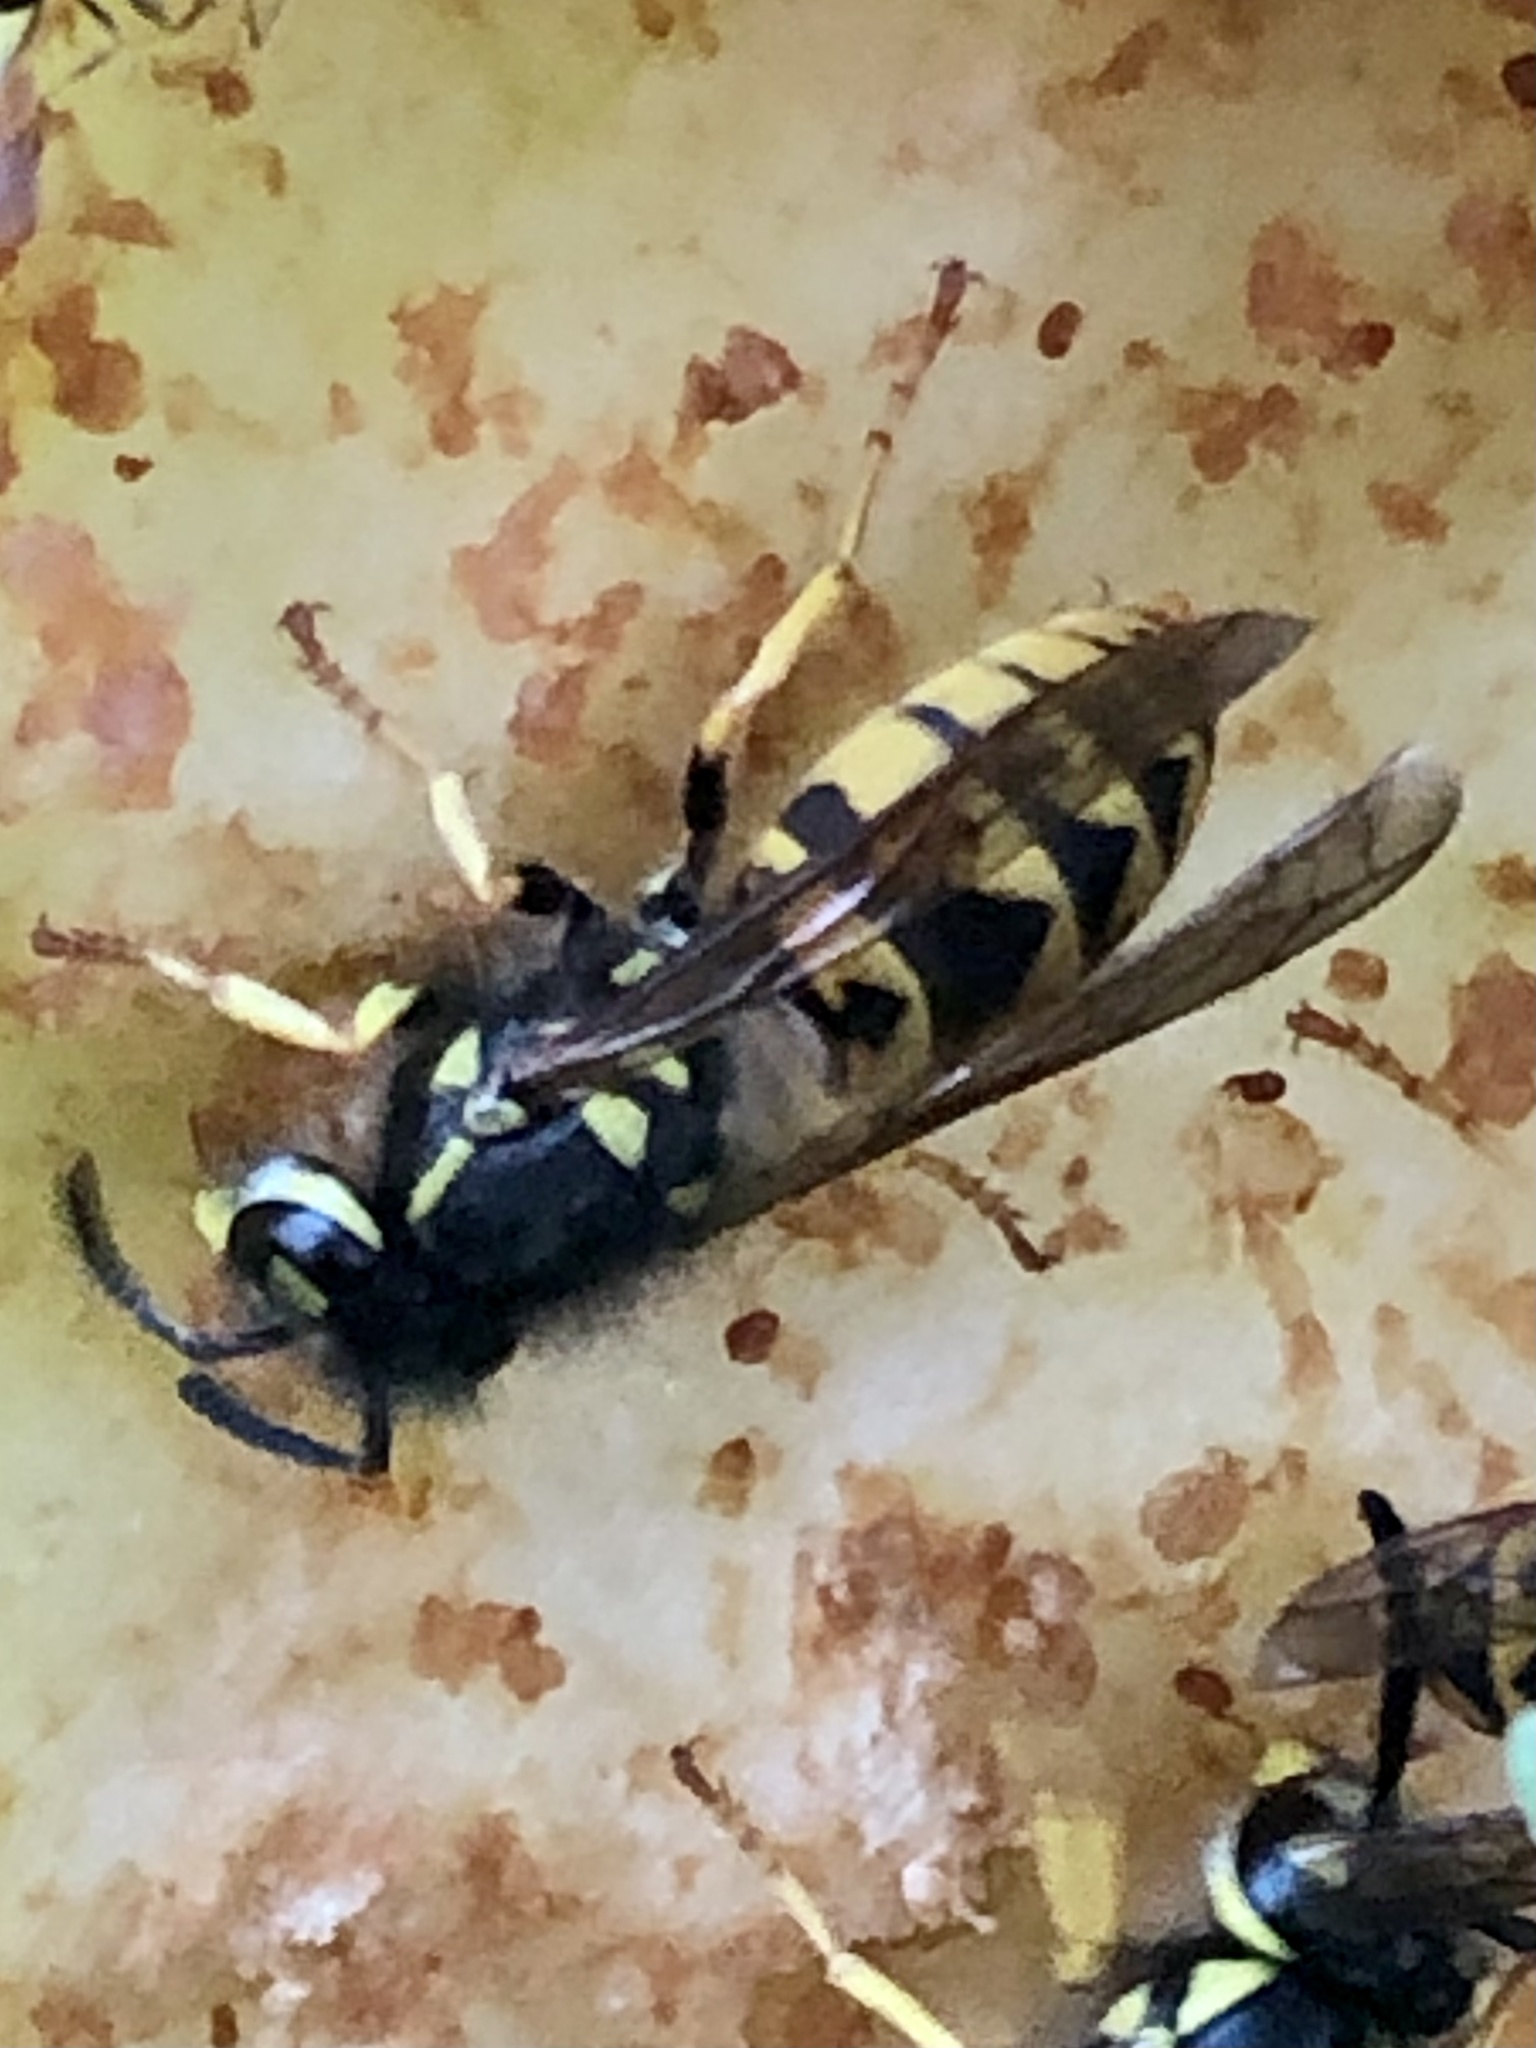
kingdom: Animalia
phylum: Arthropoda
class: Insecta
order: Hymenoptera
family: Vespidae
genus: Vespula
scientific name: Vespula germanica
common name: German wasp
